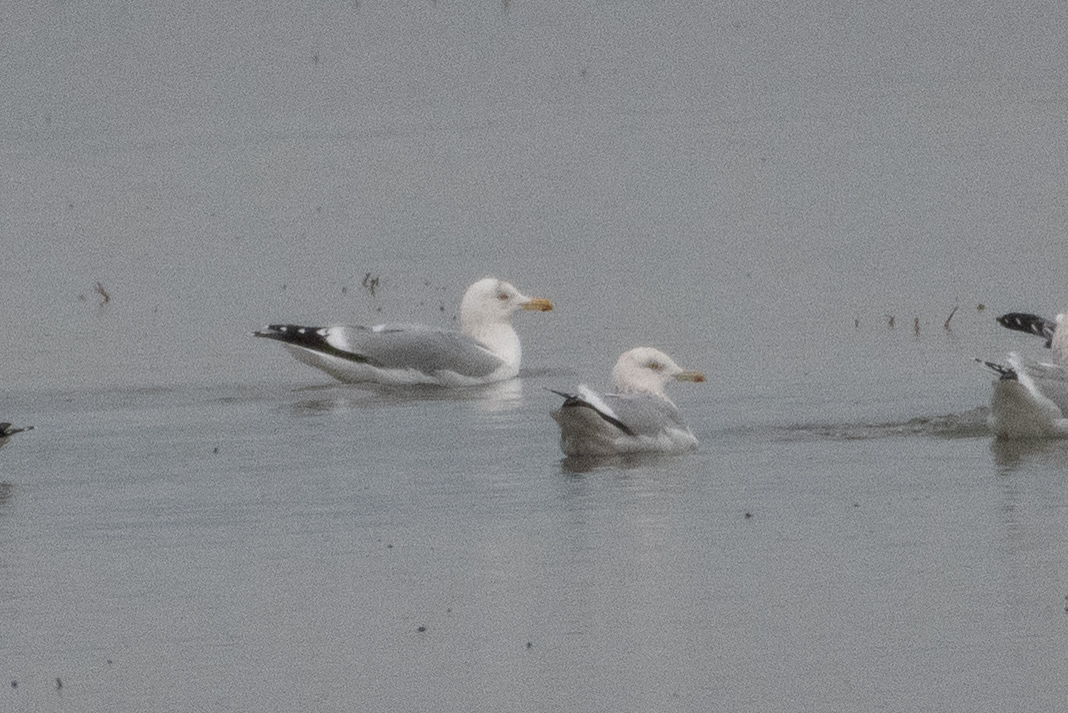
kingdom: Animalia
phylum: Chordata
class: Aves
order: Charadriiformes
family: Laridae
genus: Larus
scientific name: Larus argentatus
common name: Herring gull
